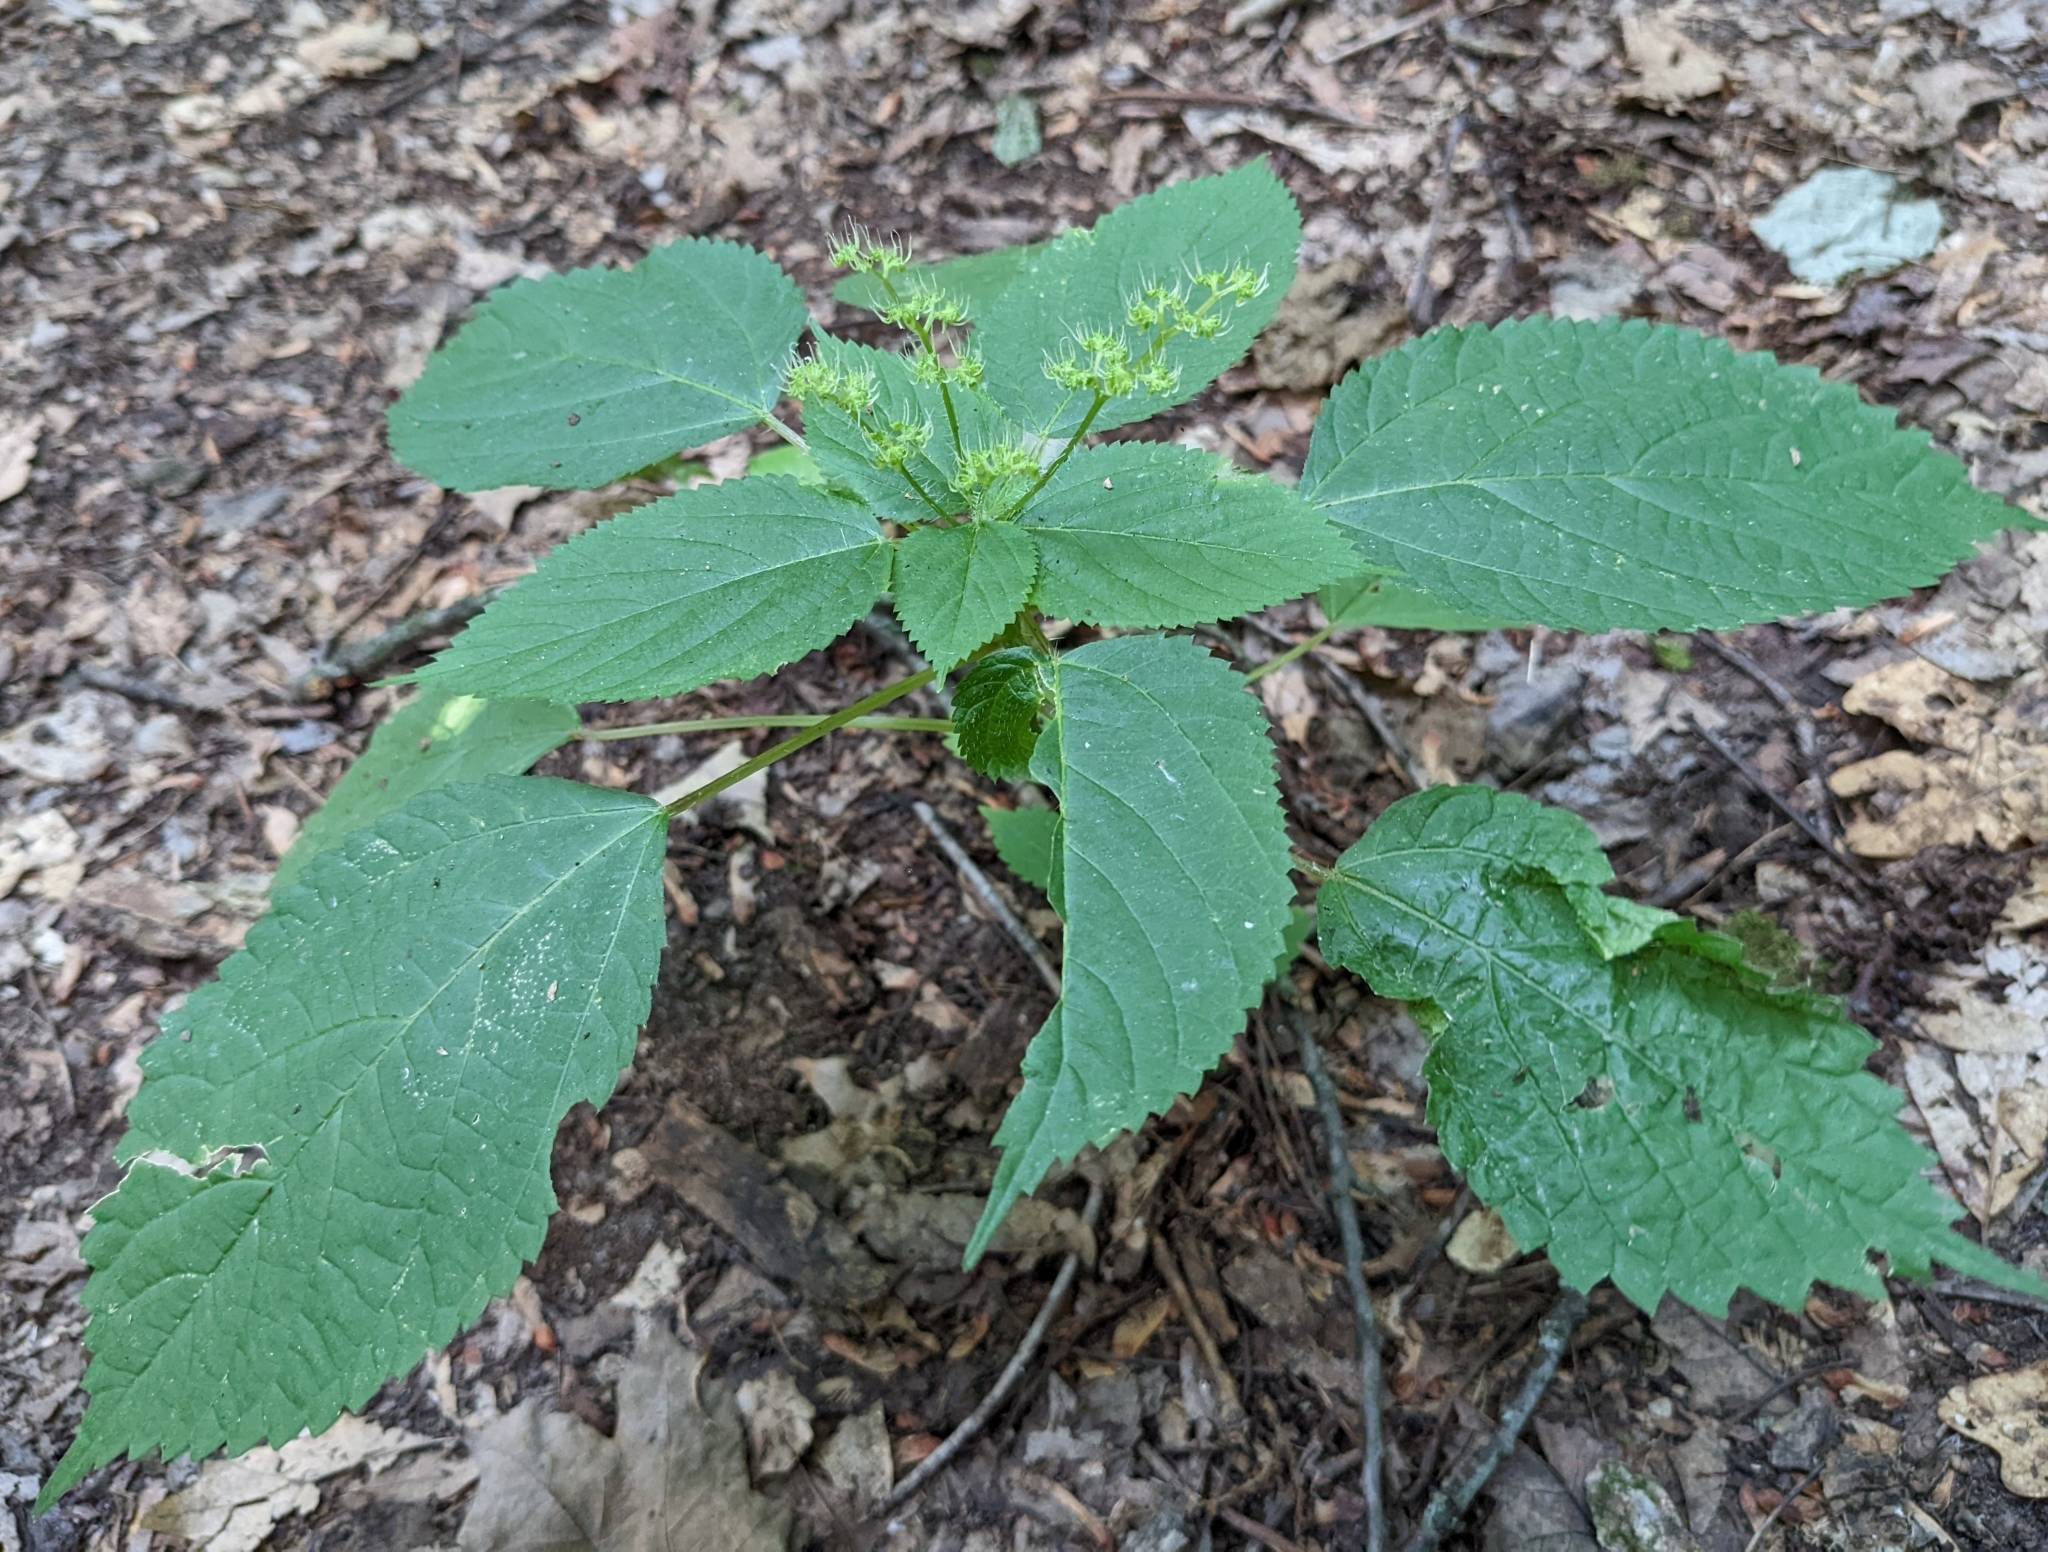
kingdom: Plantae
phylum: Tracheophyta
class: Magnoliopsida
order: Rosales
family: Urticaceae
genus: Laportea
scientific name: Laportea canadensis
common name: Canada nettle
